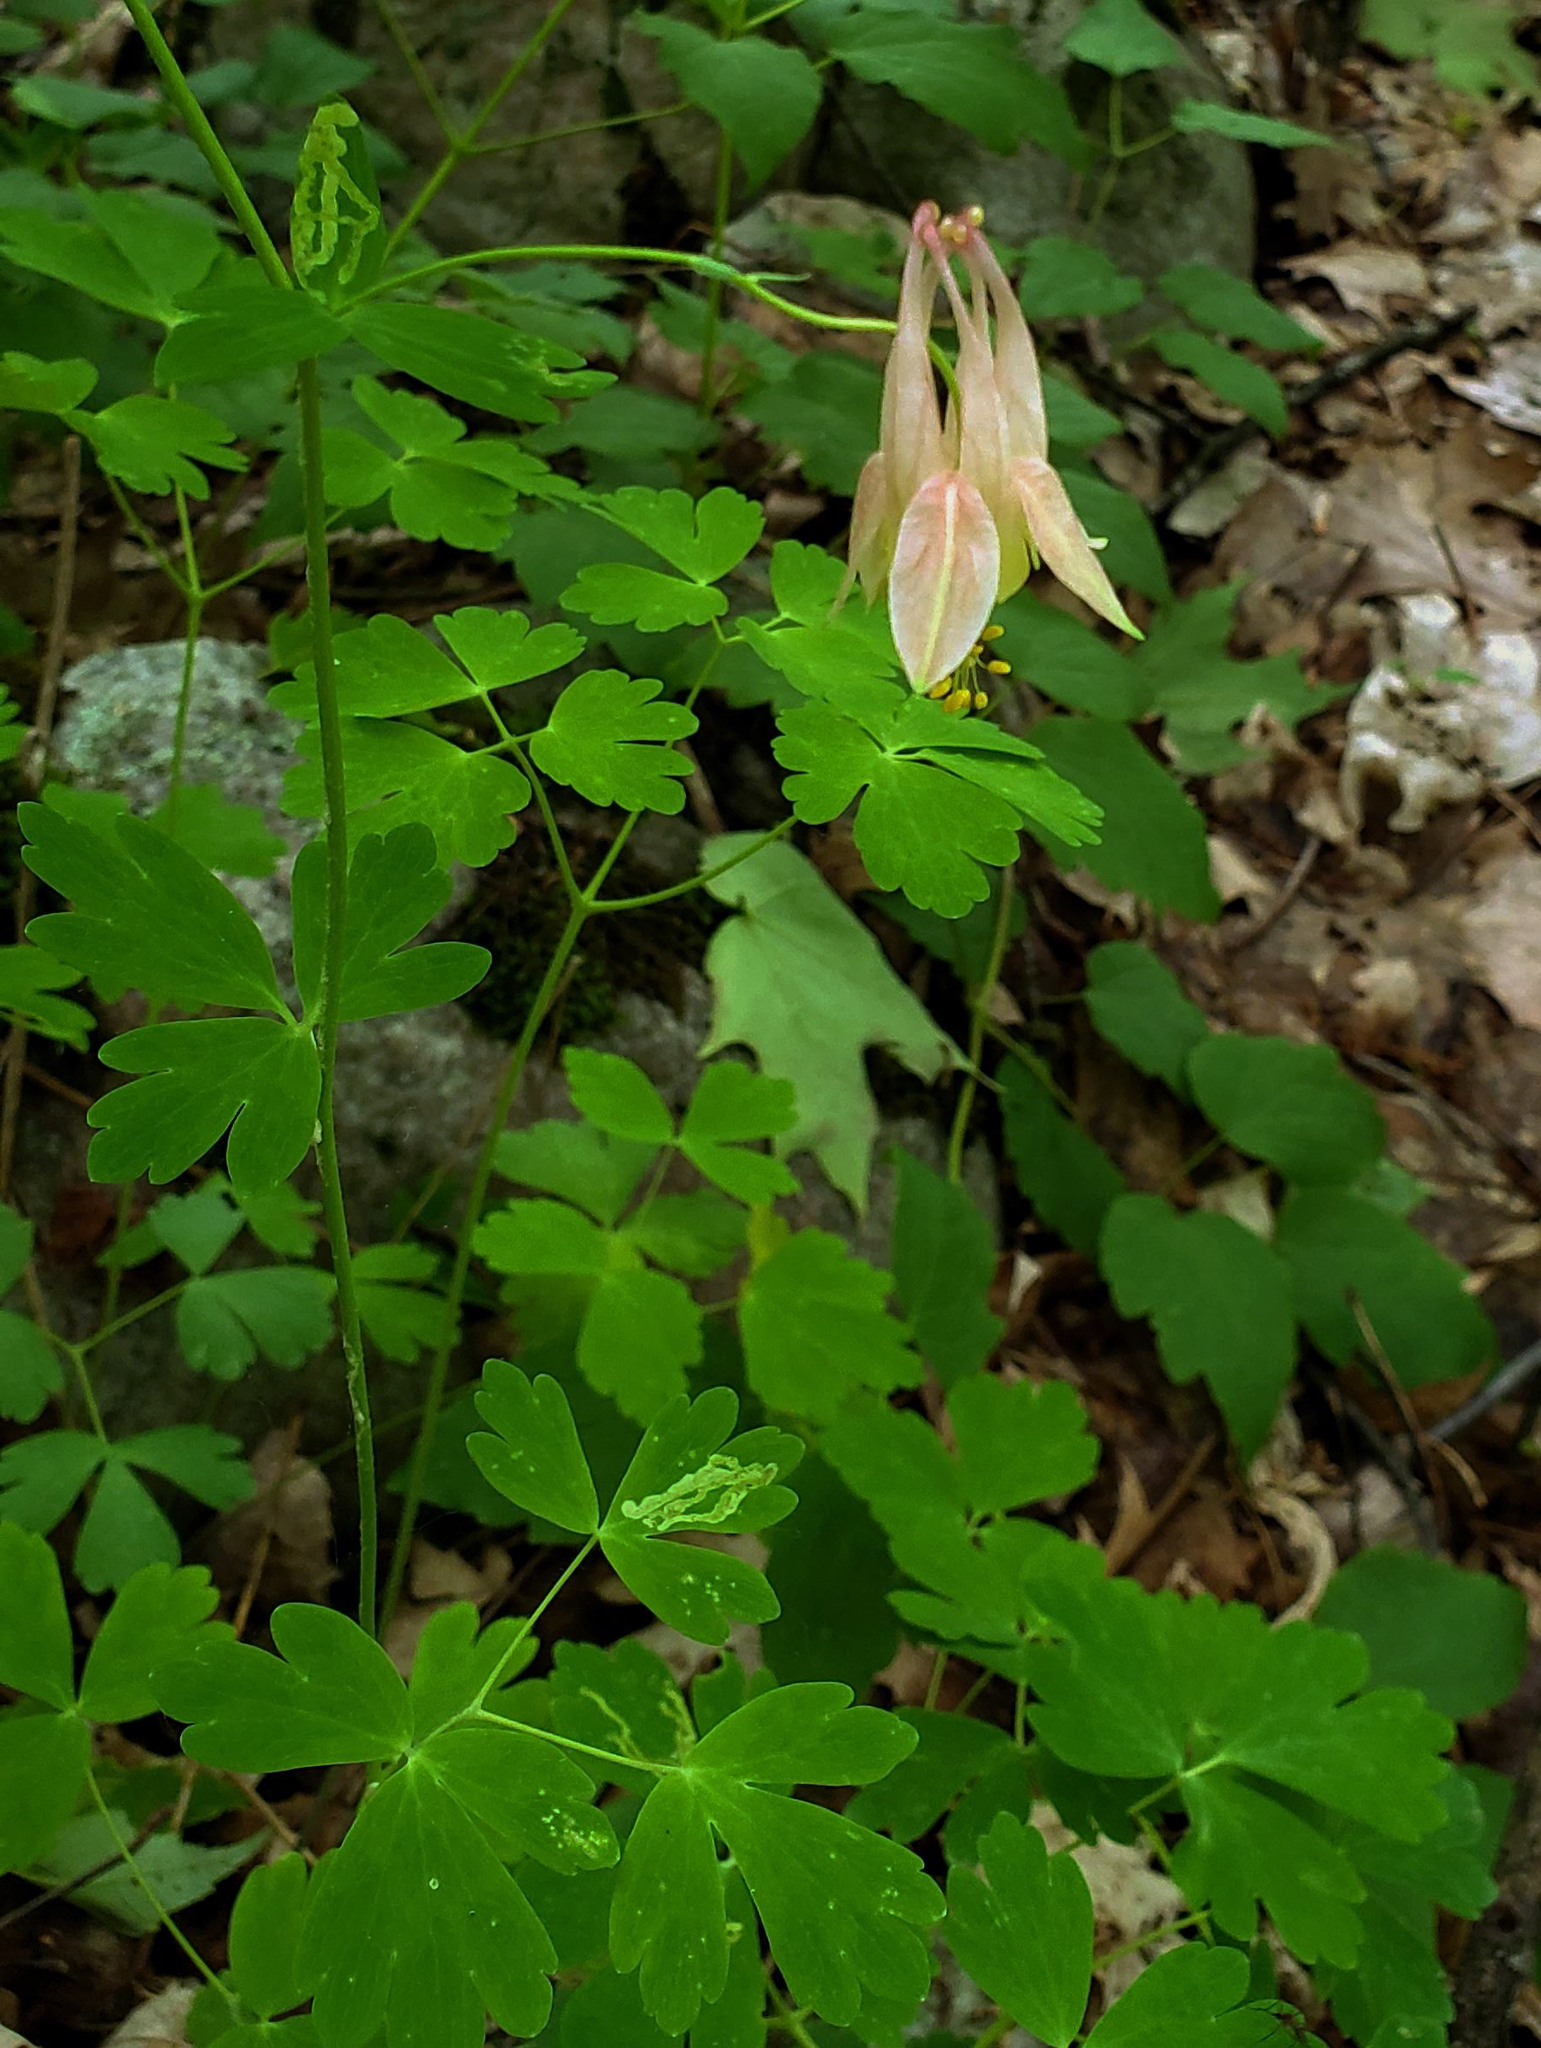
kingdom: Plantae
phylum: Tracheophyta
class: Magnoliopsida
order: Ranunculales
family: Ranunculaceae
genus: Aquilegia
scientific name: Aquilegia canadensis
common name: American columbine
